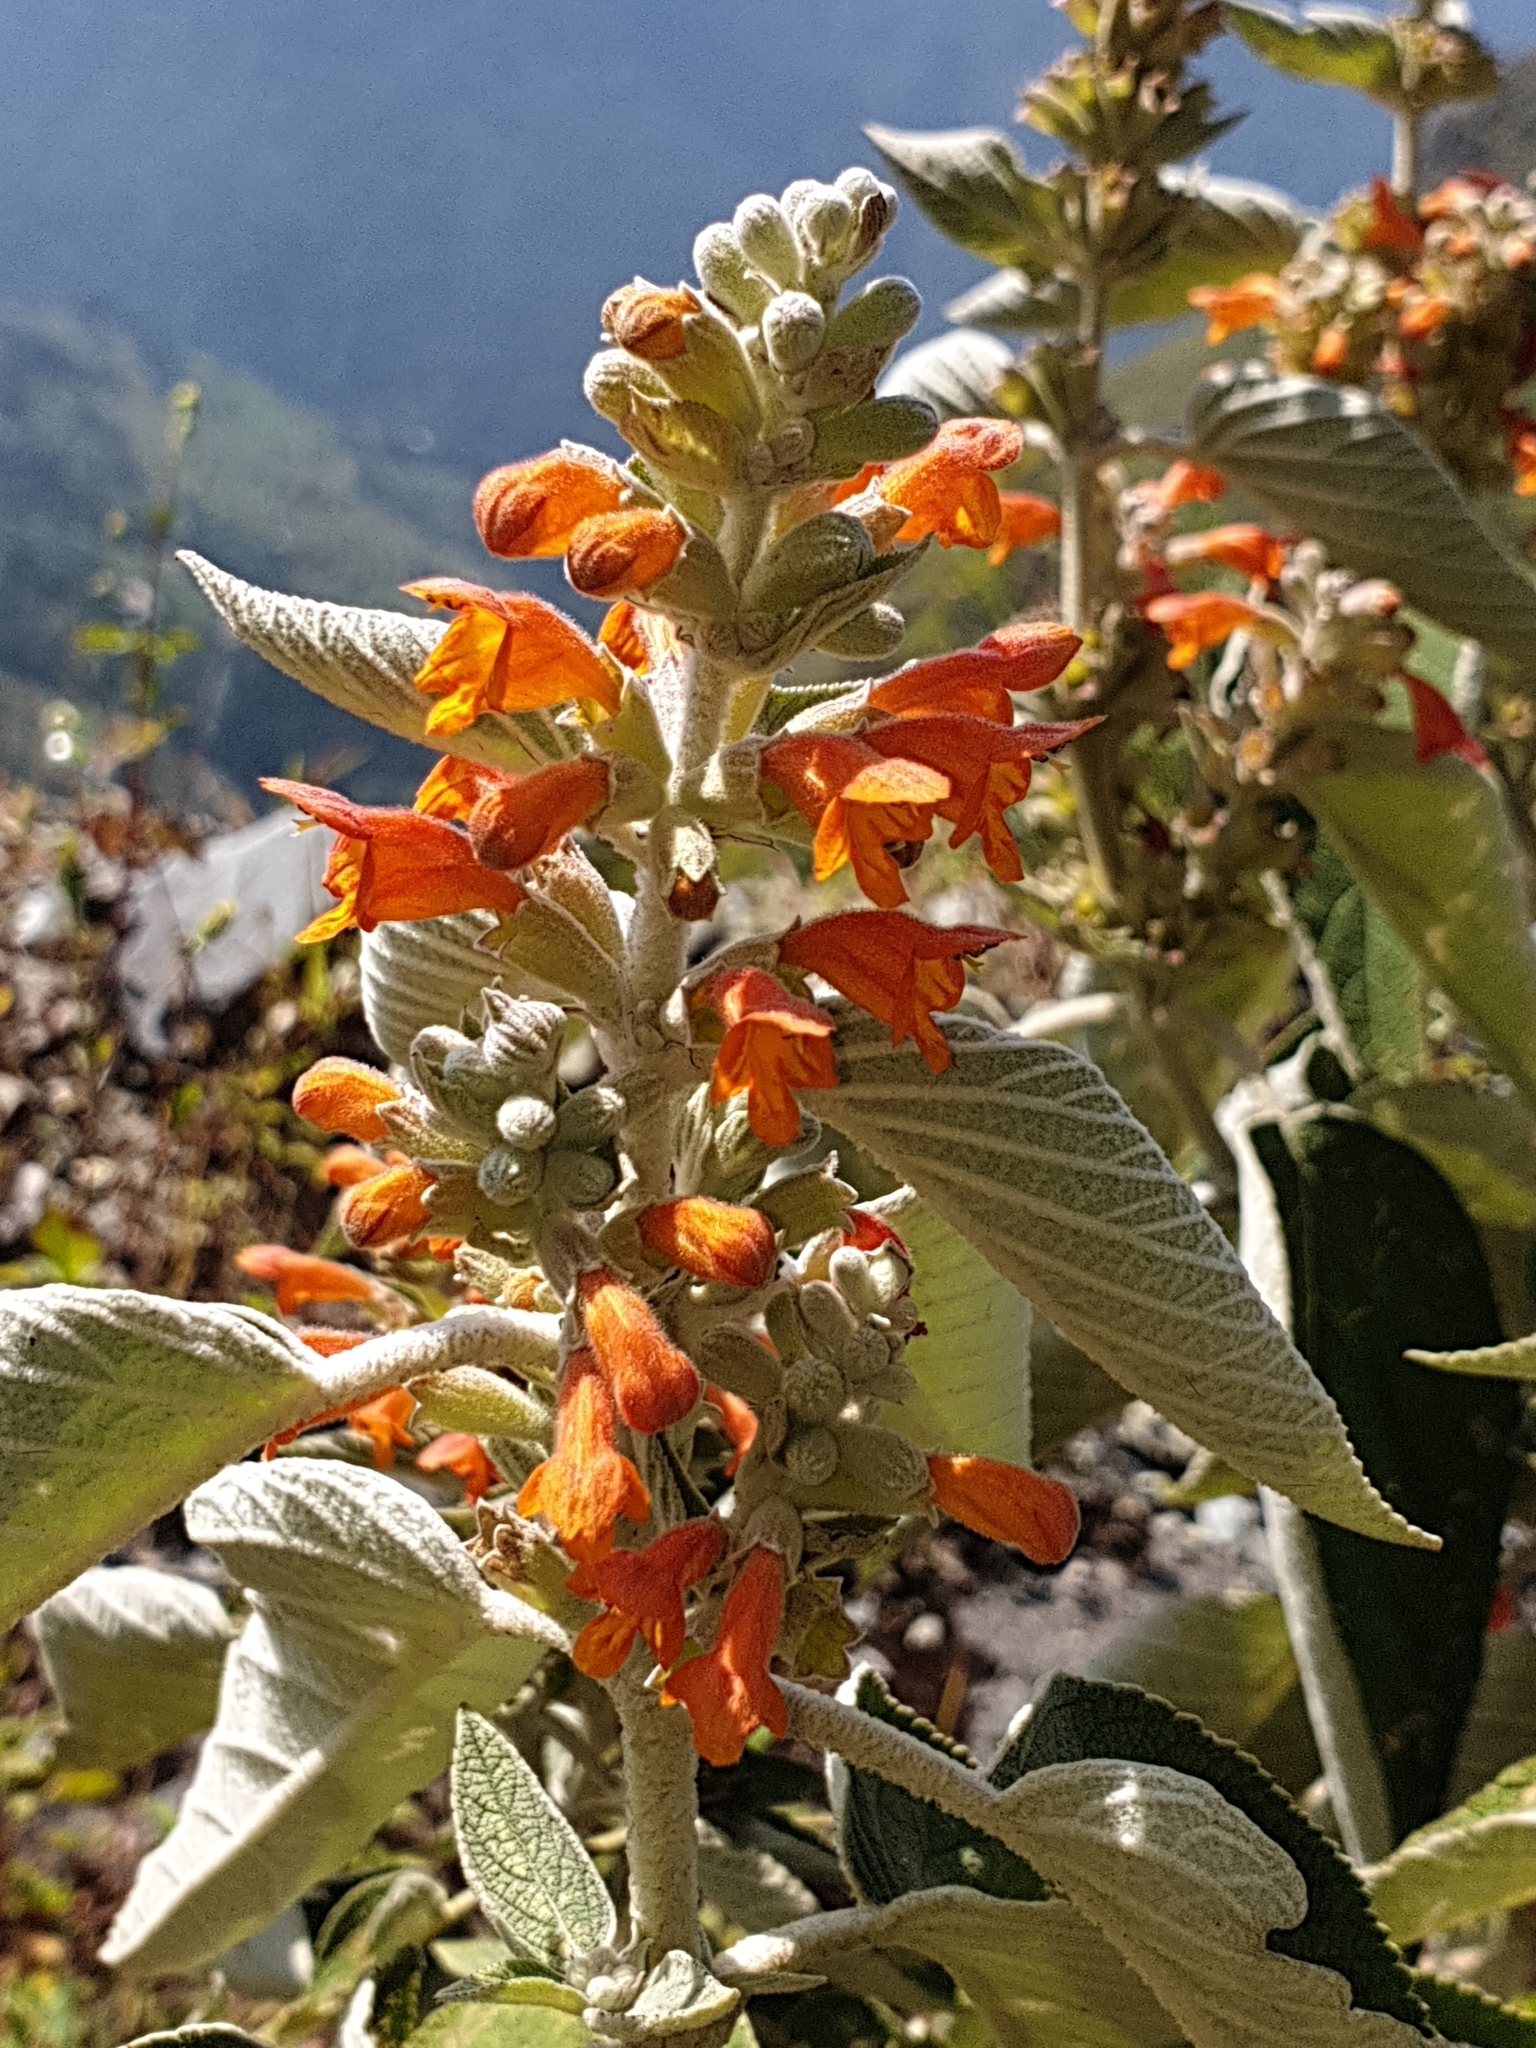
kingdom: Plantae
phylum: Tracheophyta
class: Magnoliopsida
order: Lamiales
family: Lamiaceae
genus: Colquhounia
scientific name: Colquhounia coccinea
